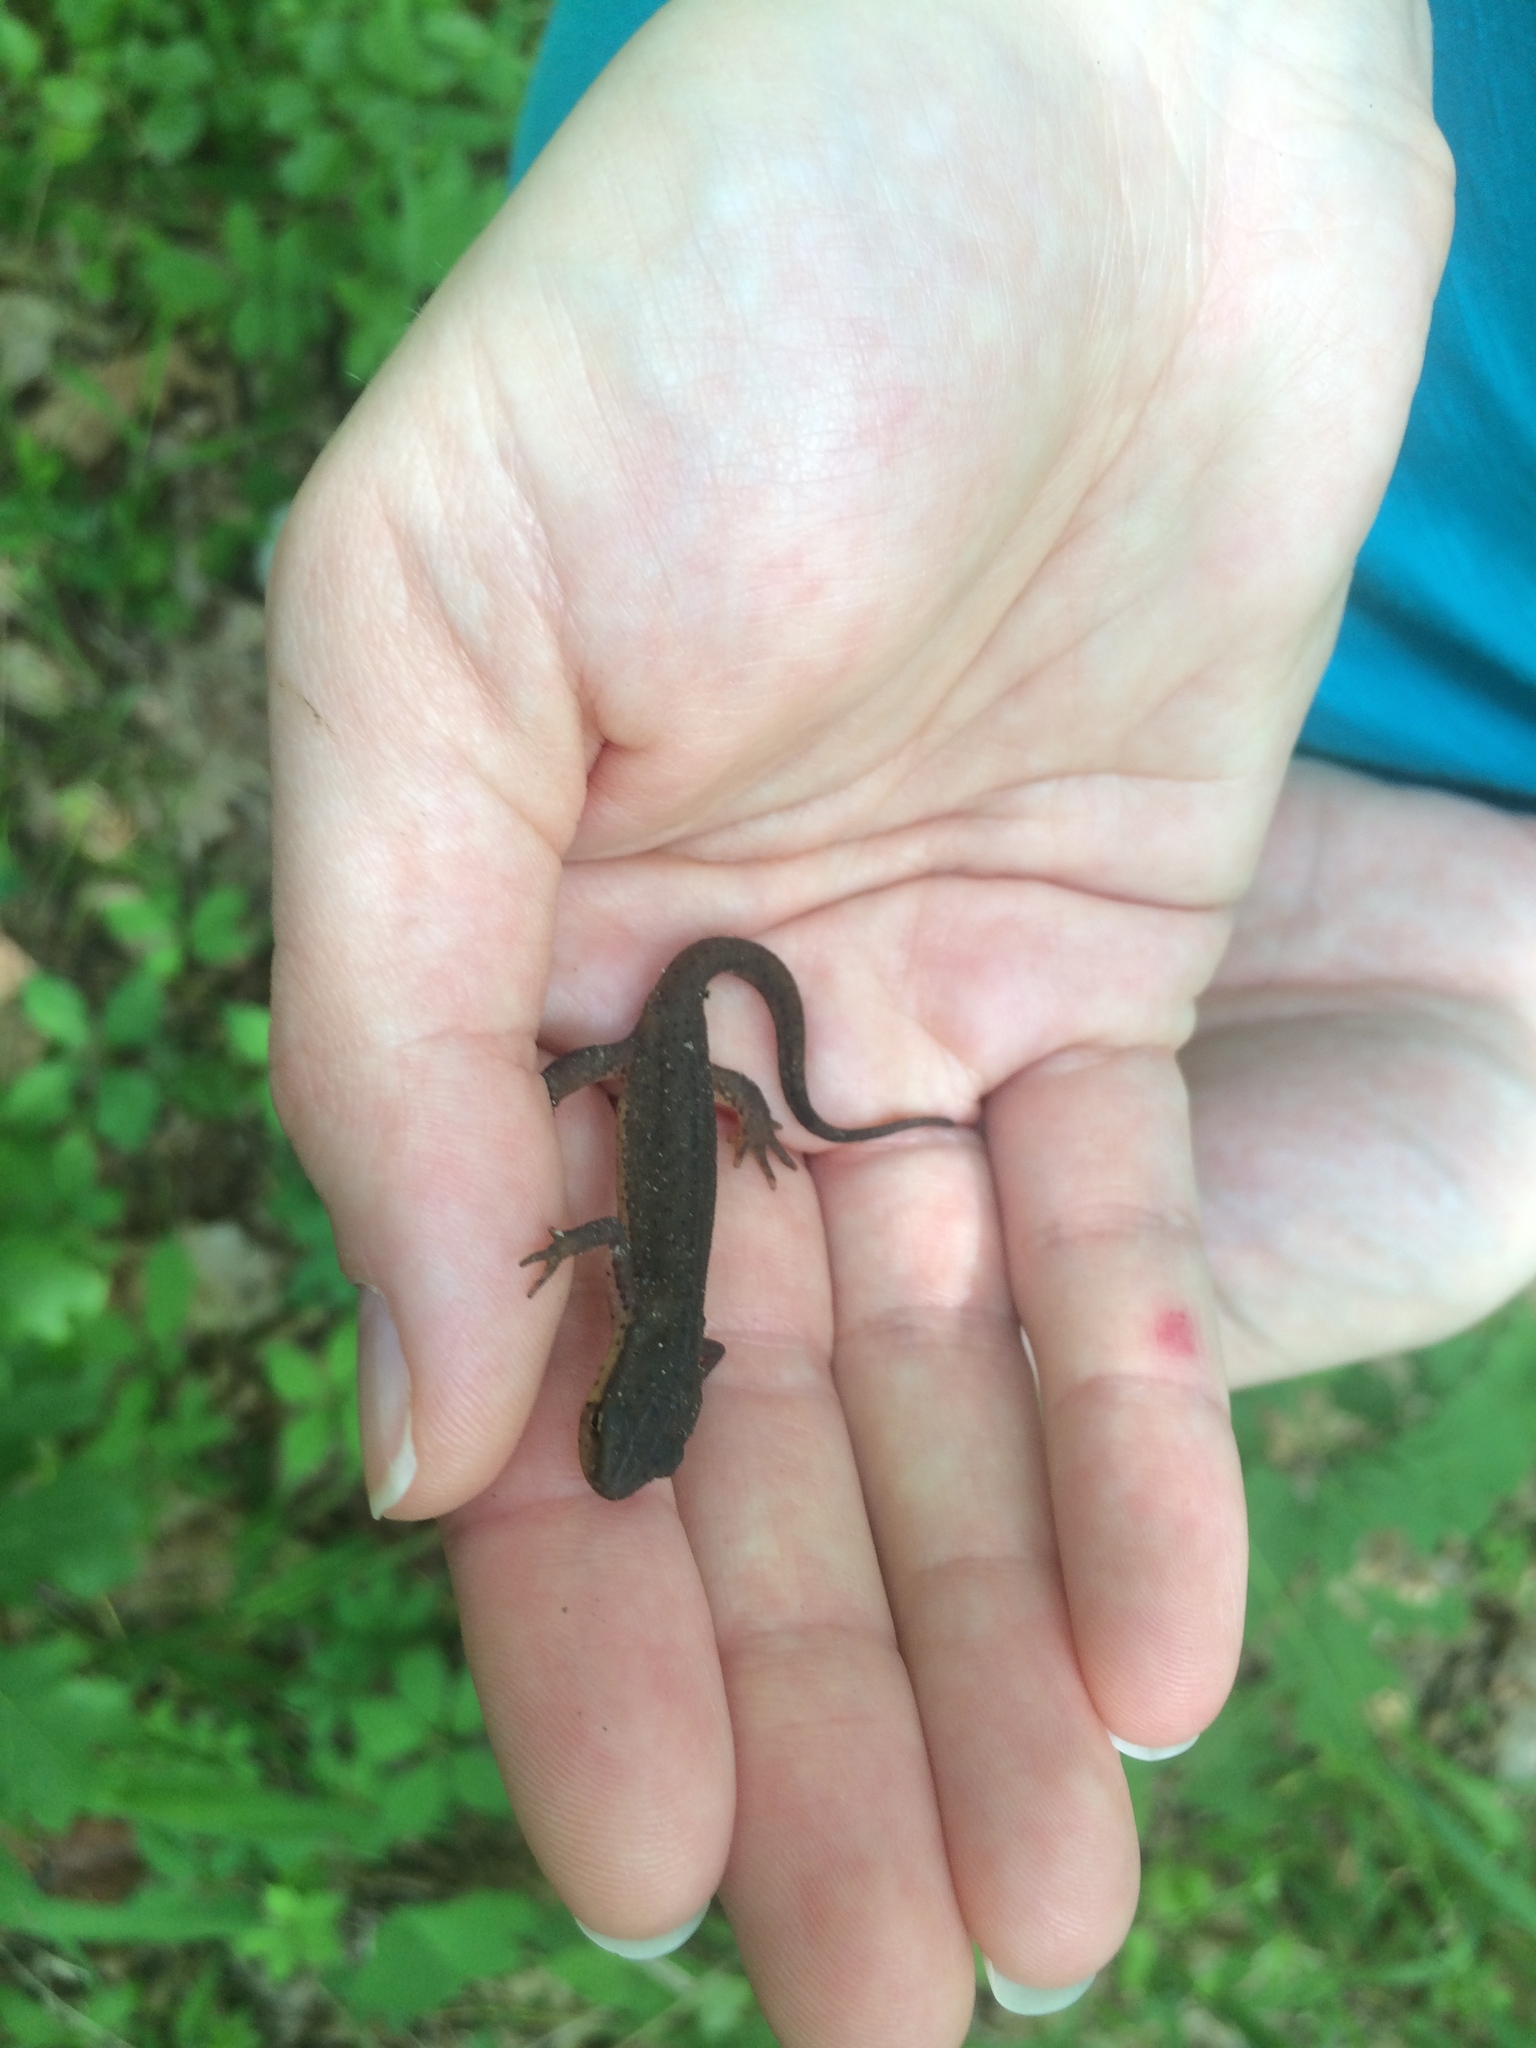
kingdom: Animalia
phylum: Chordata
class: Amphibia
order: Caudata
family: Salamandridae
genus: Notophthalmus
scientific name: Notophthalmus viridescens
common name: Eastern newt
